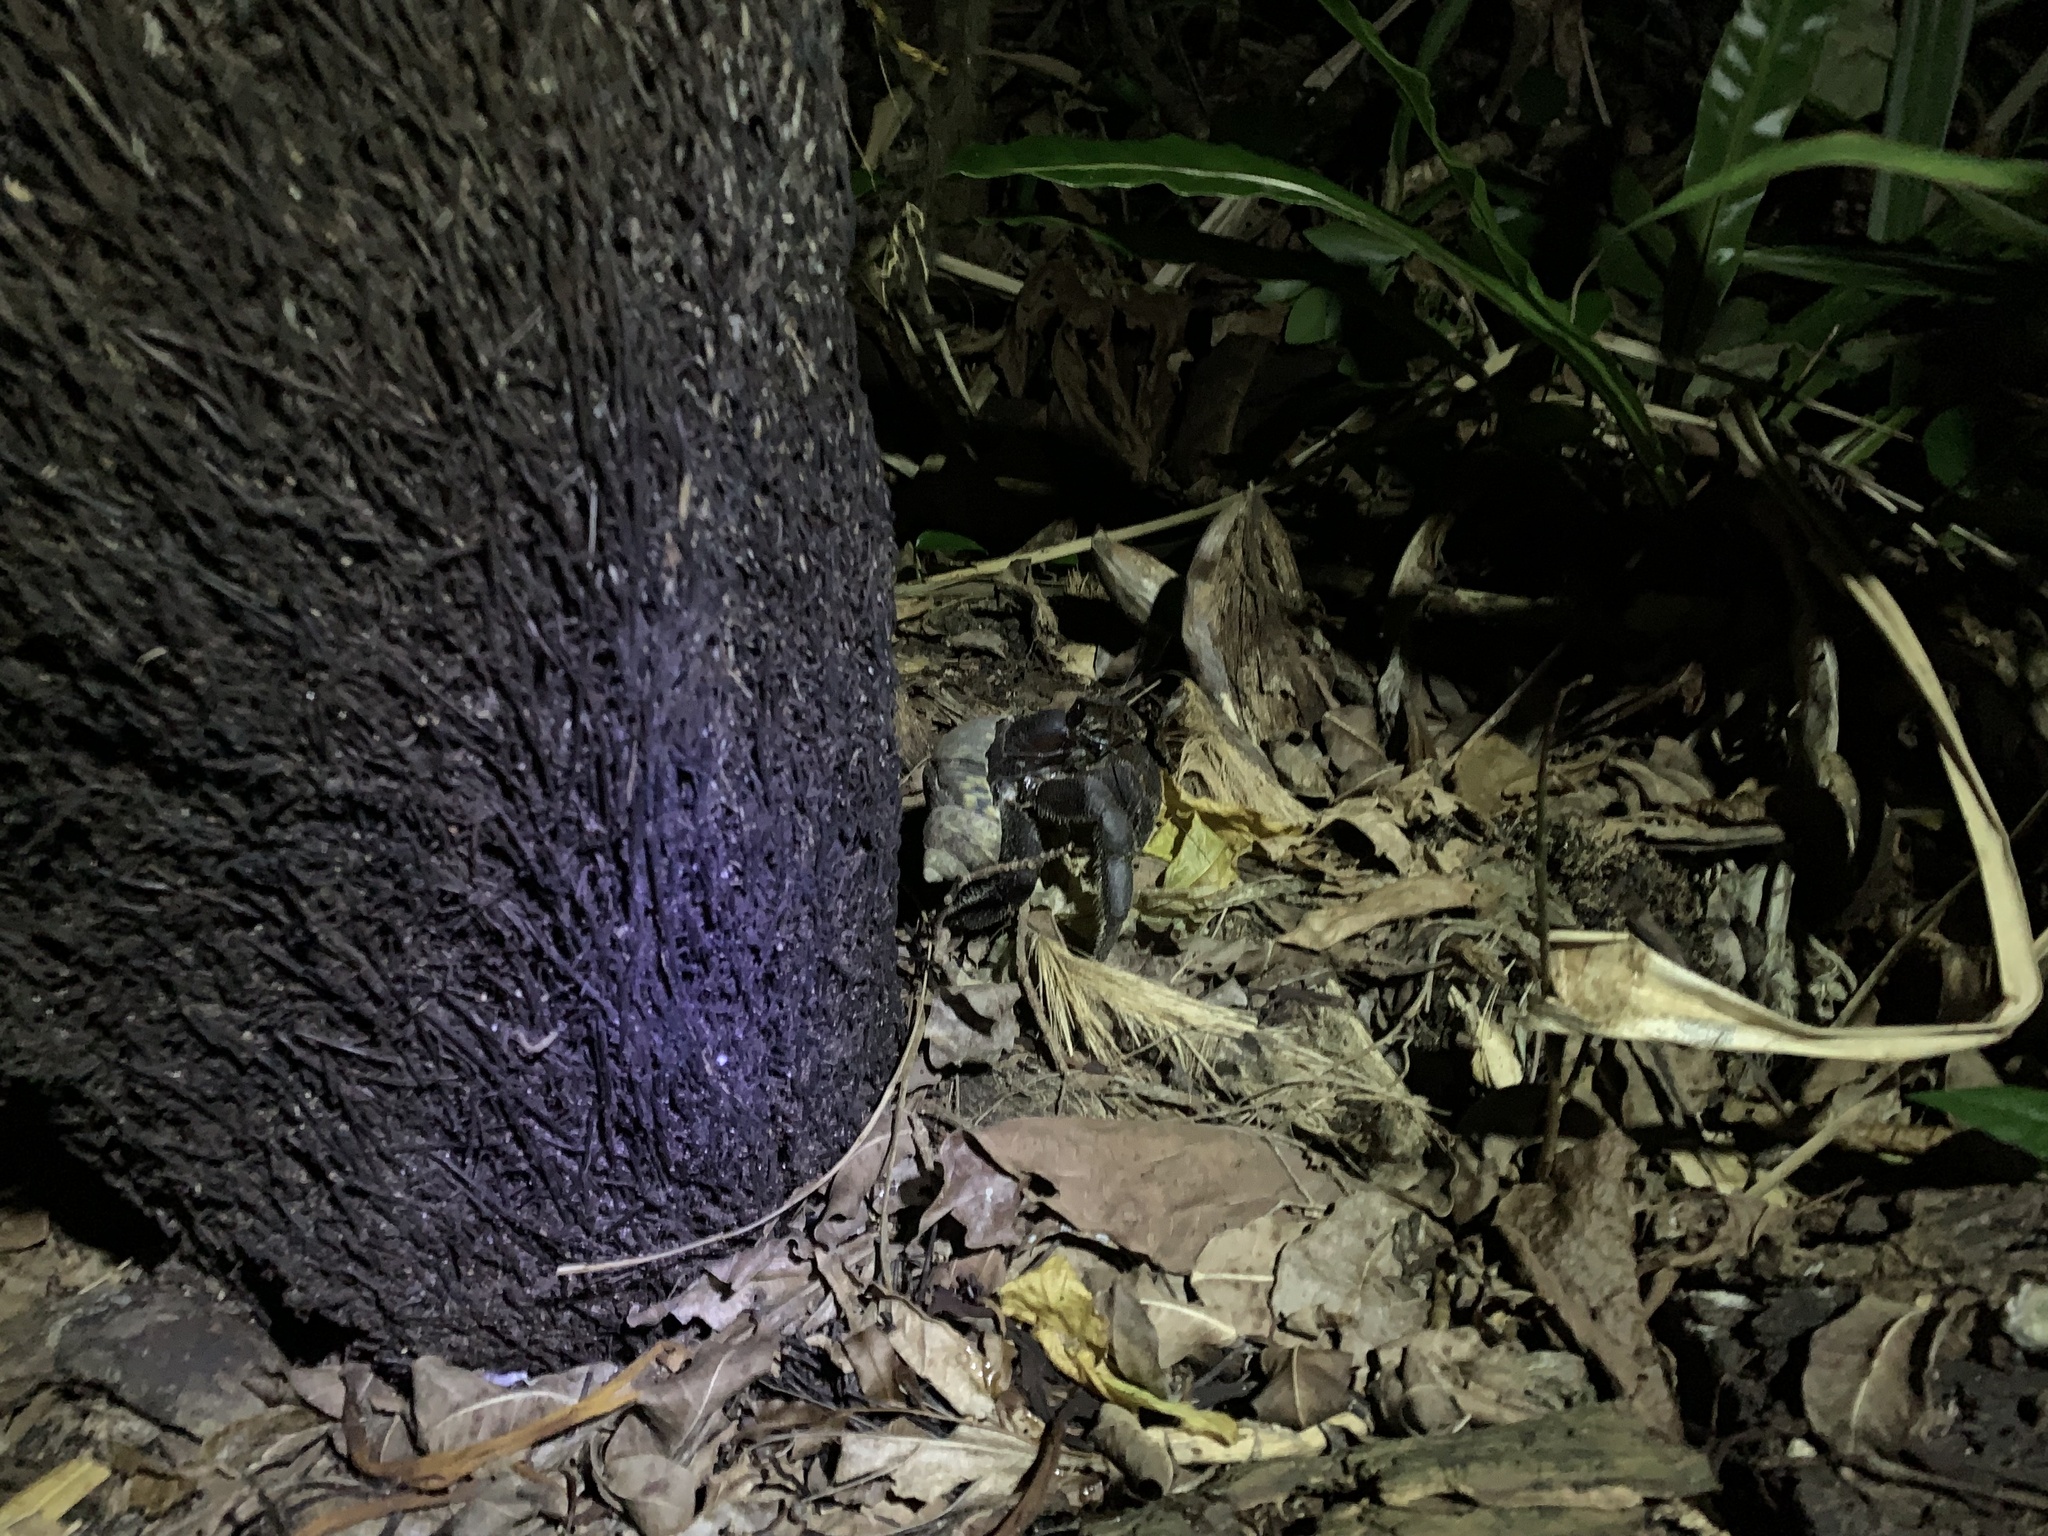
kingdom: Animalia
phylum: Arthropoda
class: Malacostraca
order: Decapoda
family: Coenobitidae
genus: Coenobita
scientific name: Coenobita spinosus
